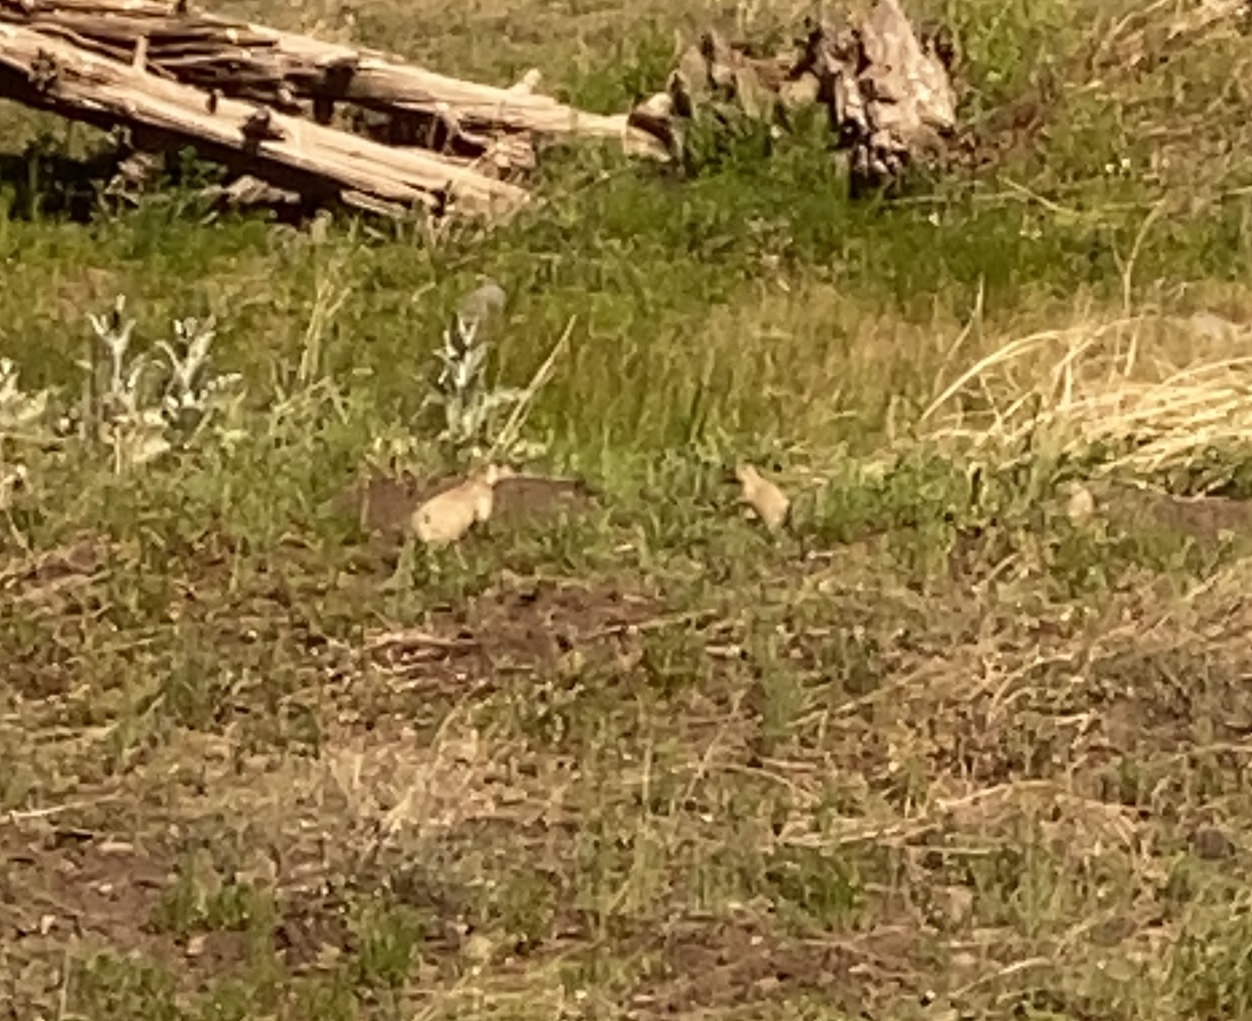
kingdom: Animalia
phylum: Chordata
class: Mammalia
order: Rodentia
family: Sciuridae
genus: Cynomys
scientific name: Cynomys gunnisoni
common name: Gunnison's prairie dog
